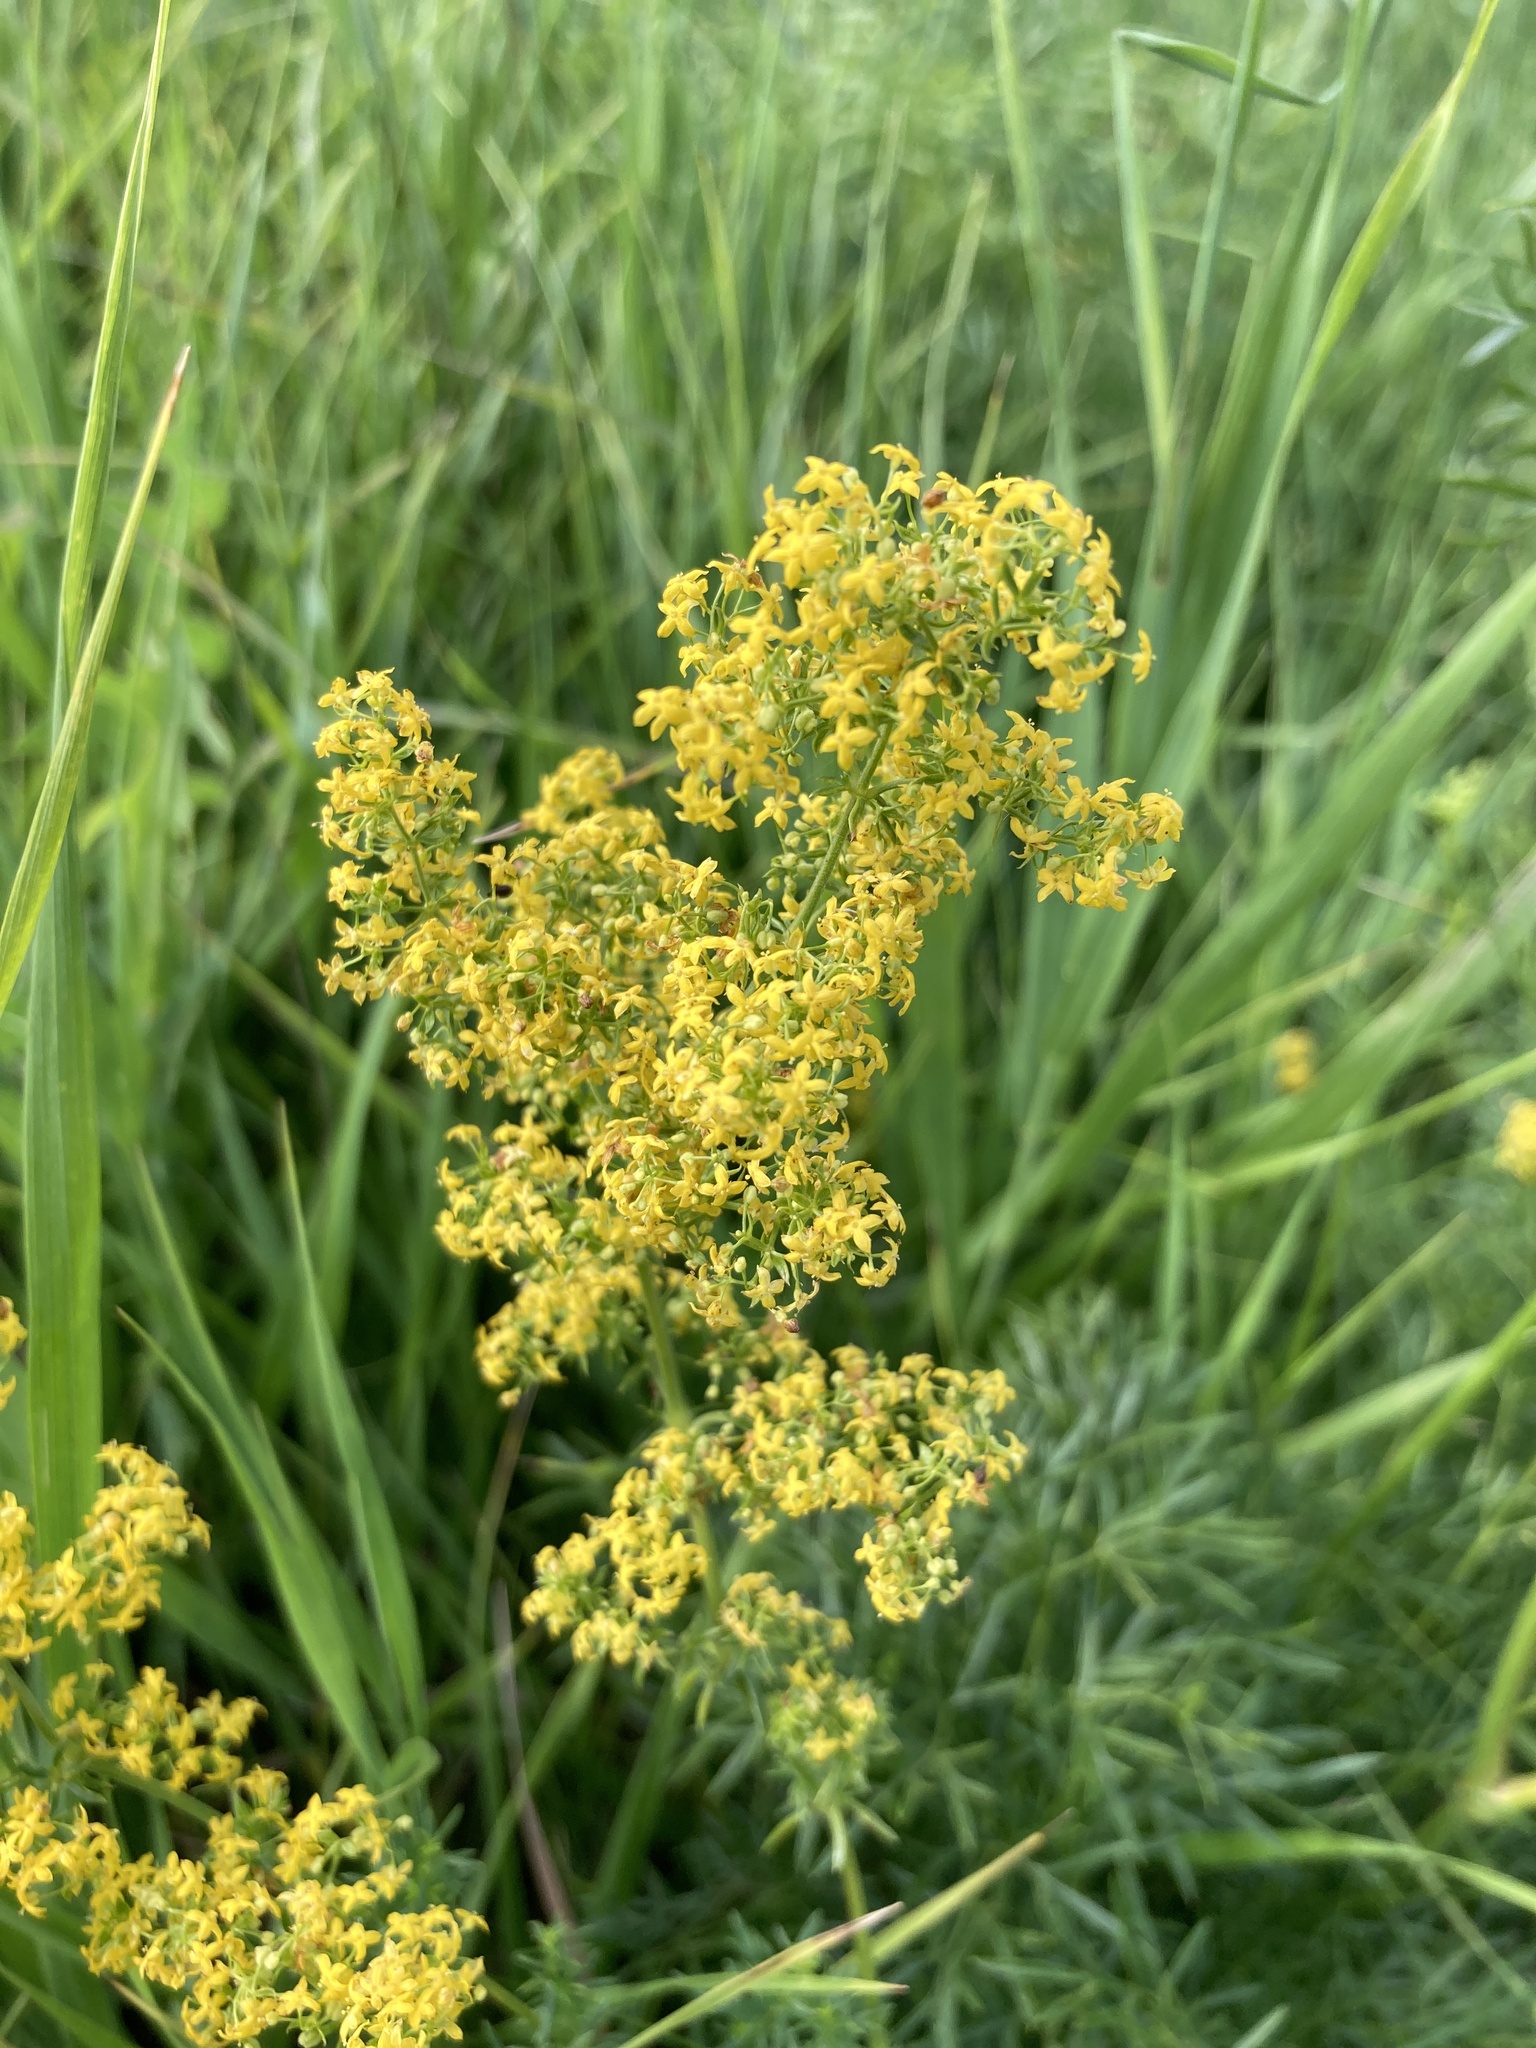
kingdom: Plantae
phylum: Tracheophyta
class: Magnoliopsida
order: Gentianales
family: Rubiaceae
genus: Galium
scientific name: Galium verum
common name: Lady's bedstraw
